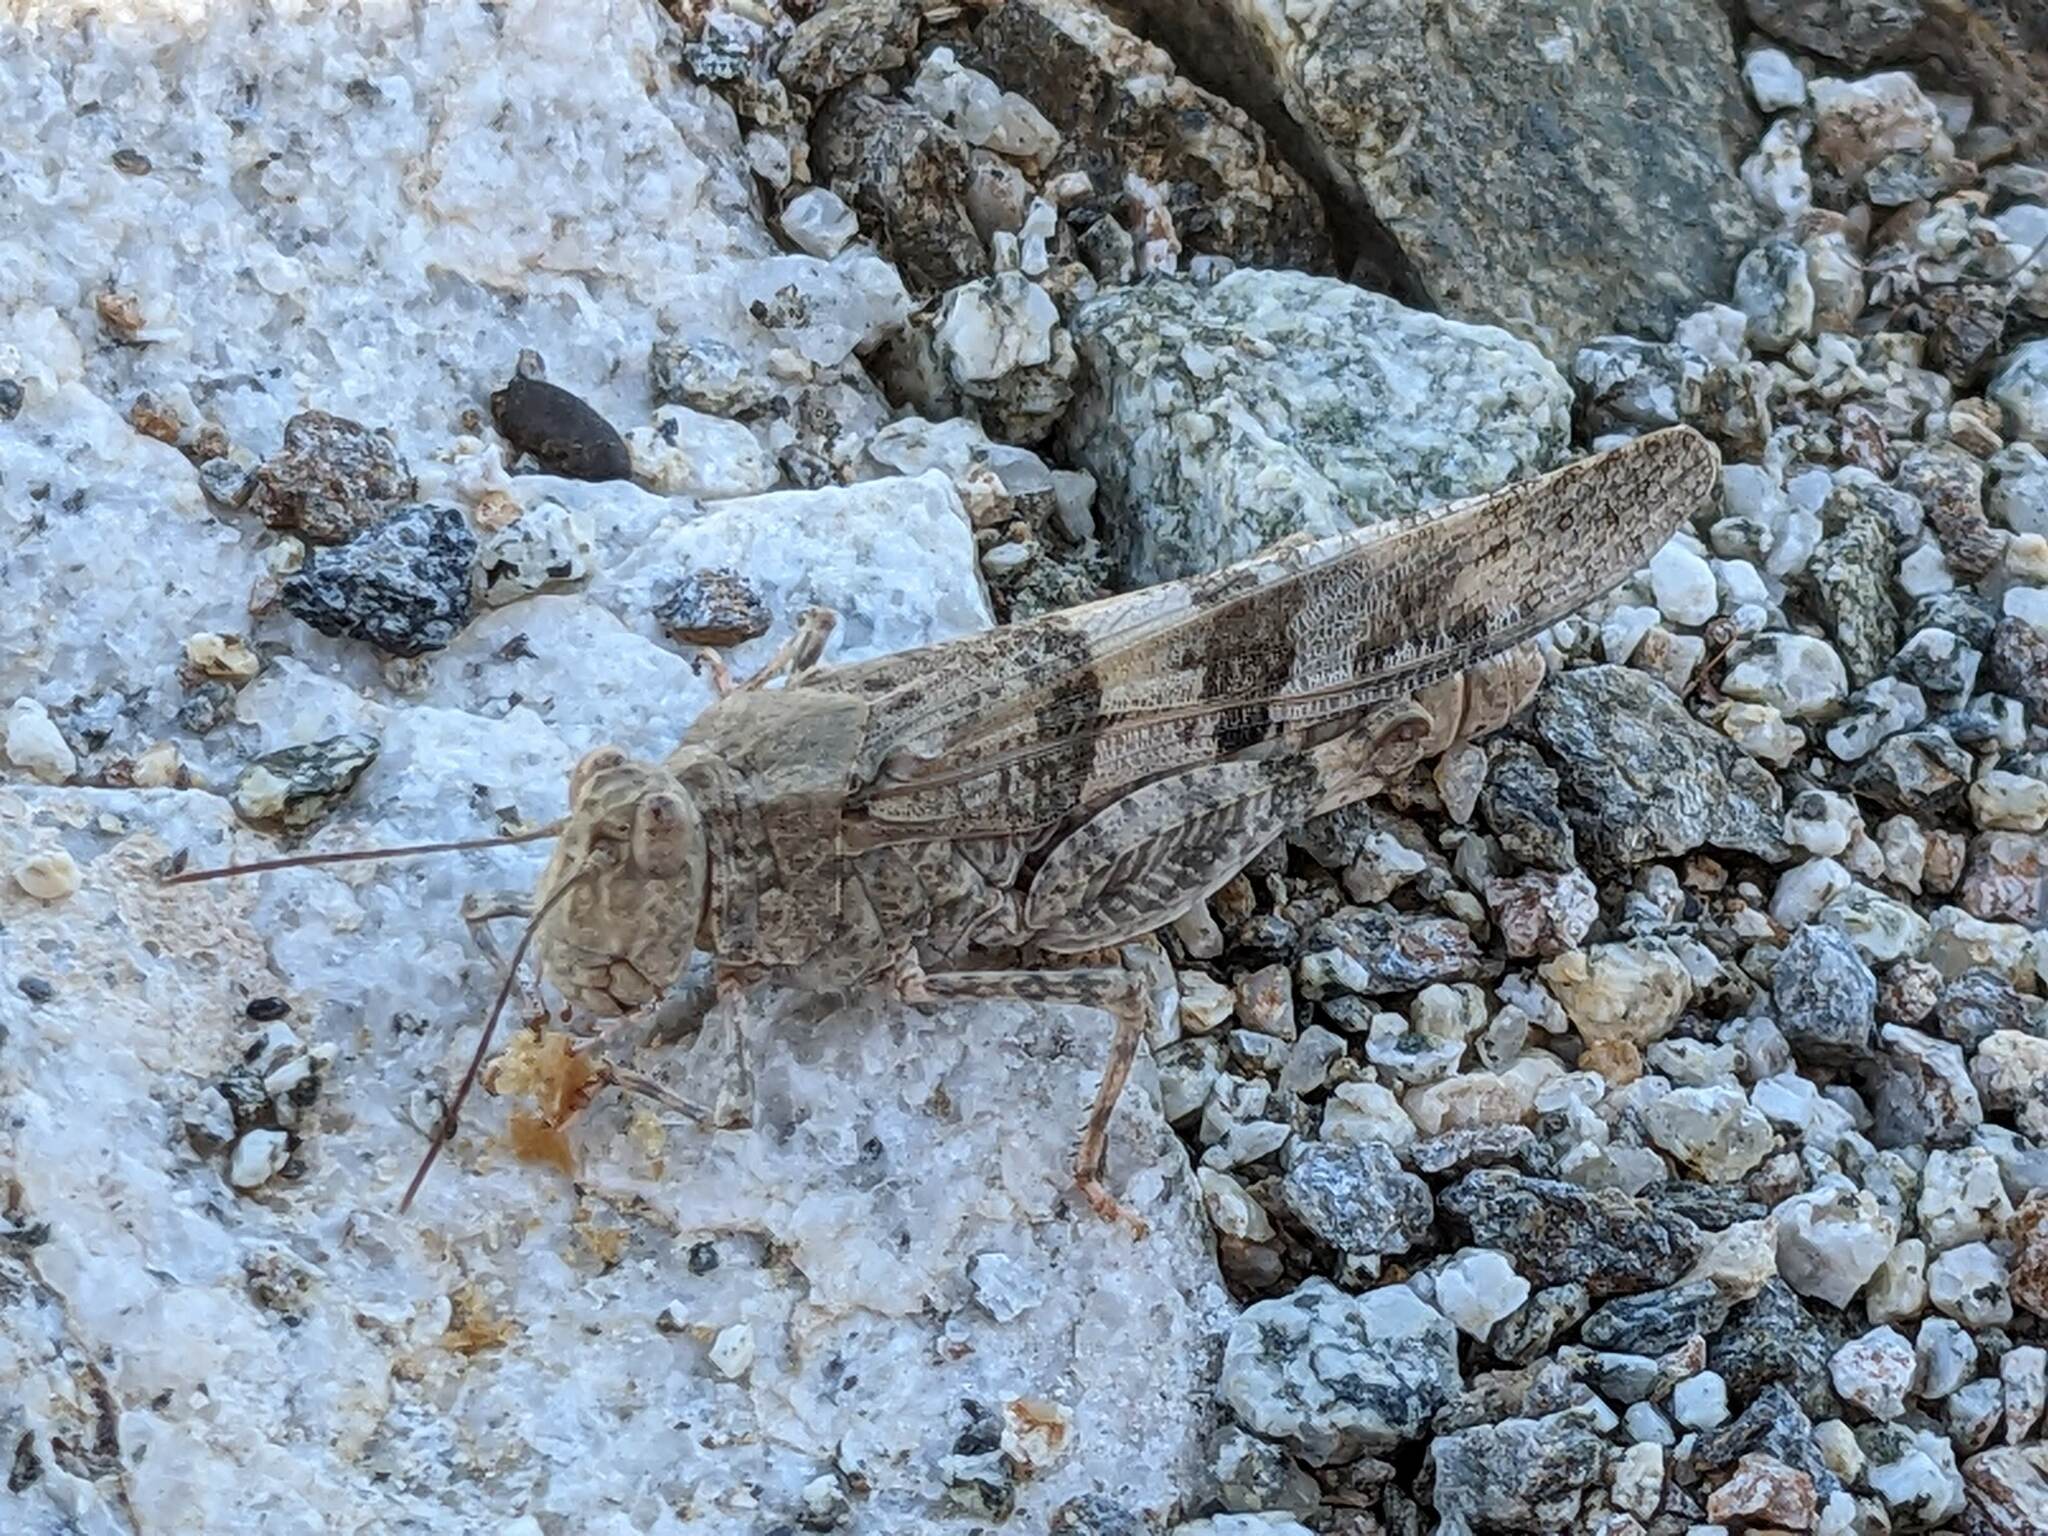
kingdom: Animalia
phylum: Arthropoda
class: Insecta
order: Orthoptera
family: Acrididae
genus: Trimerotropis
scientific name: Trimerotropis pallidipennis
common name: Pallid-winged grasshopper
